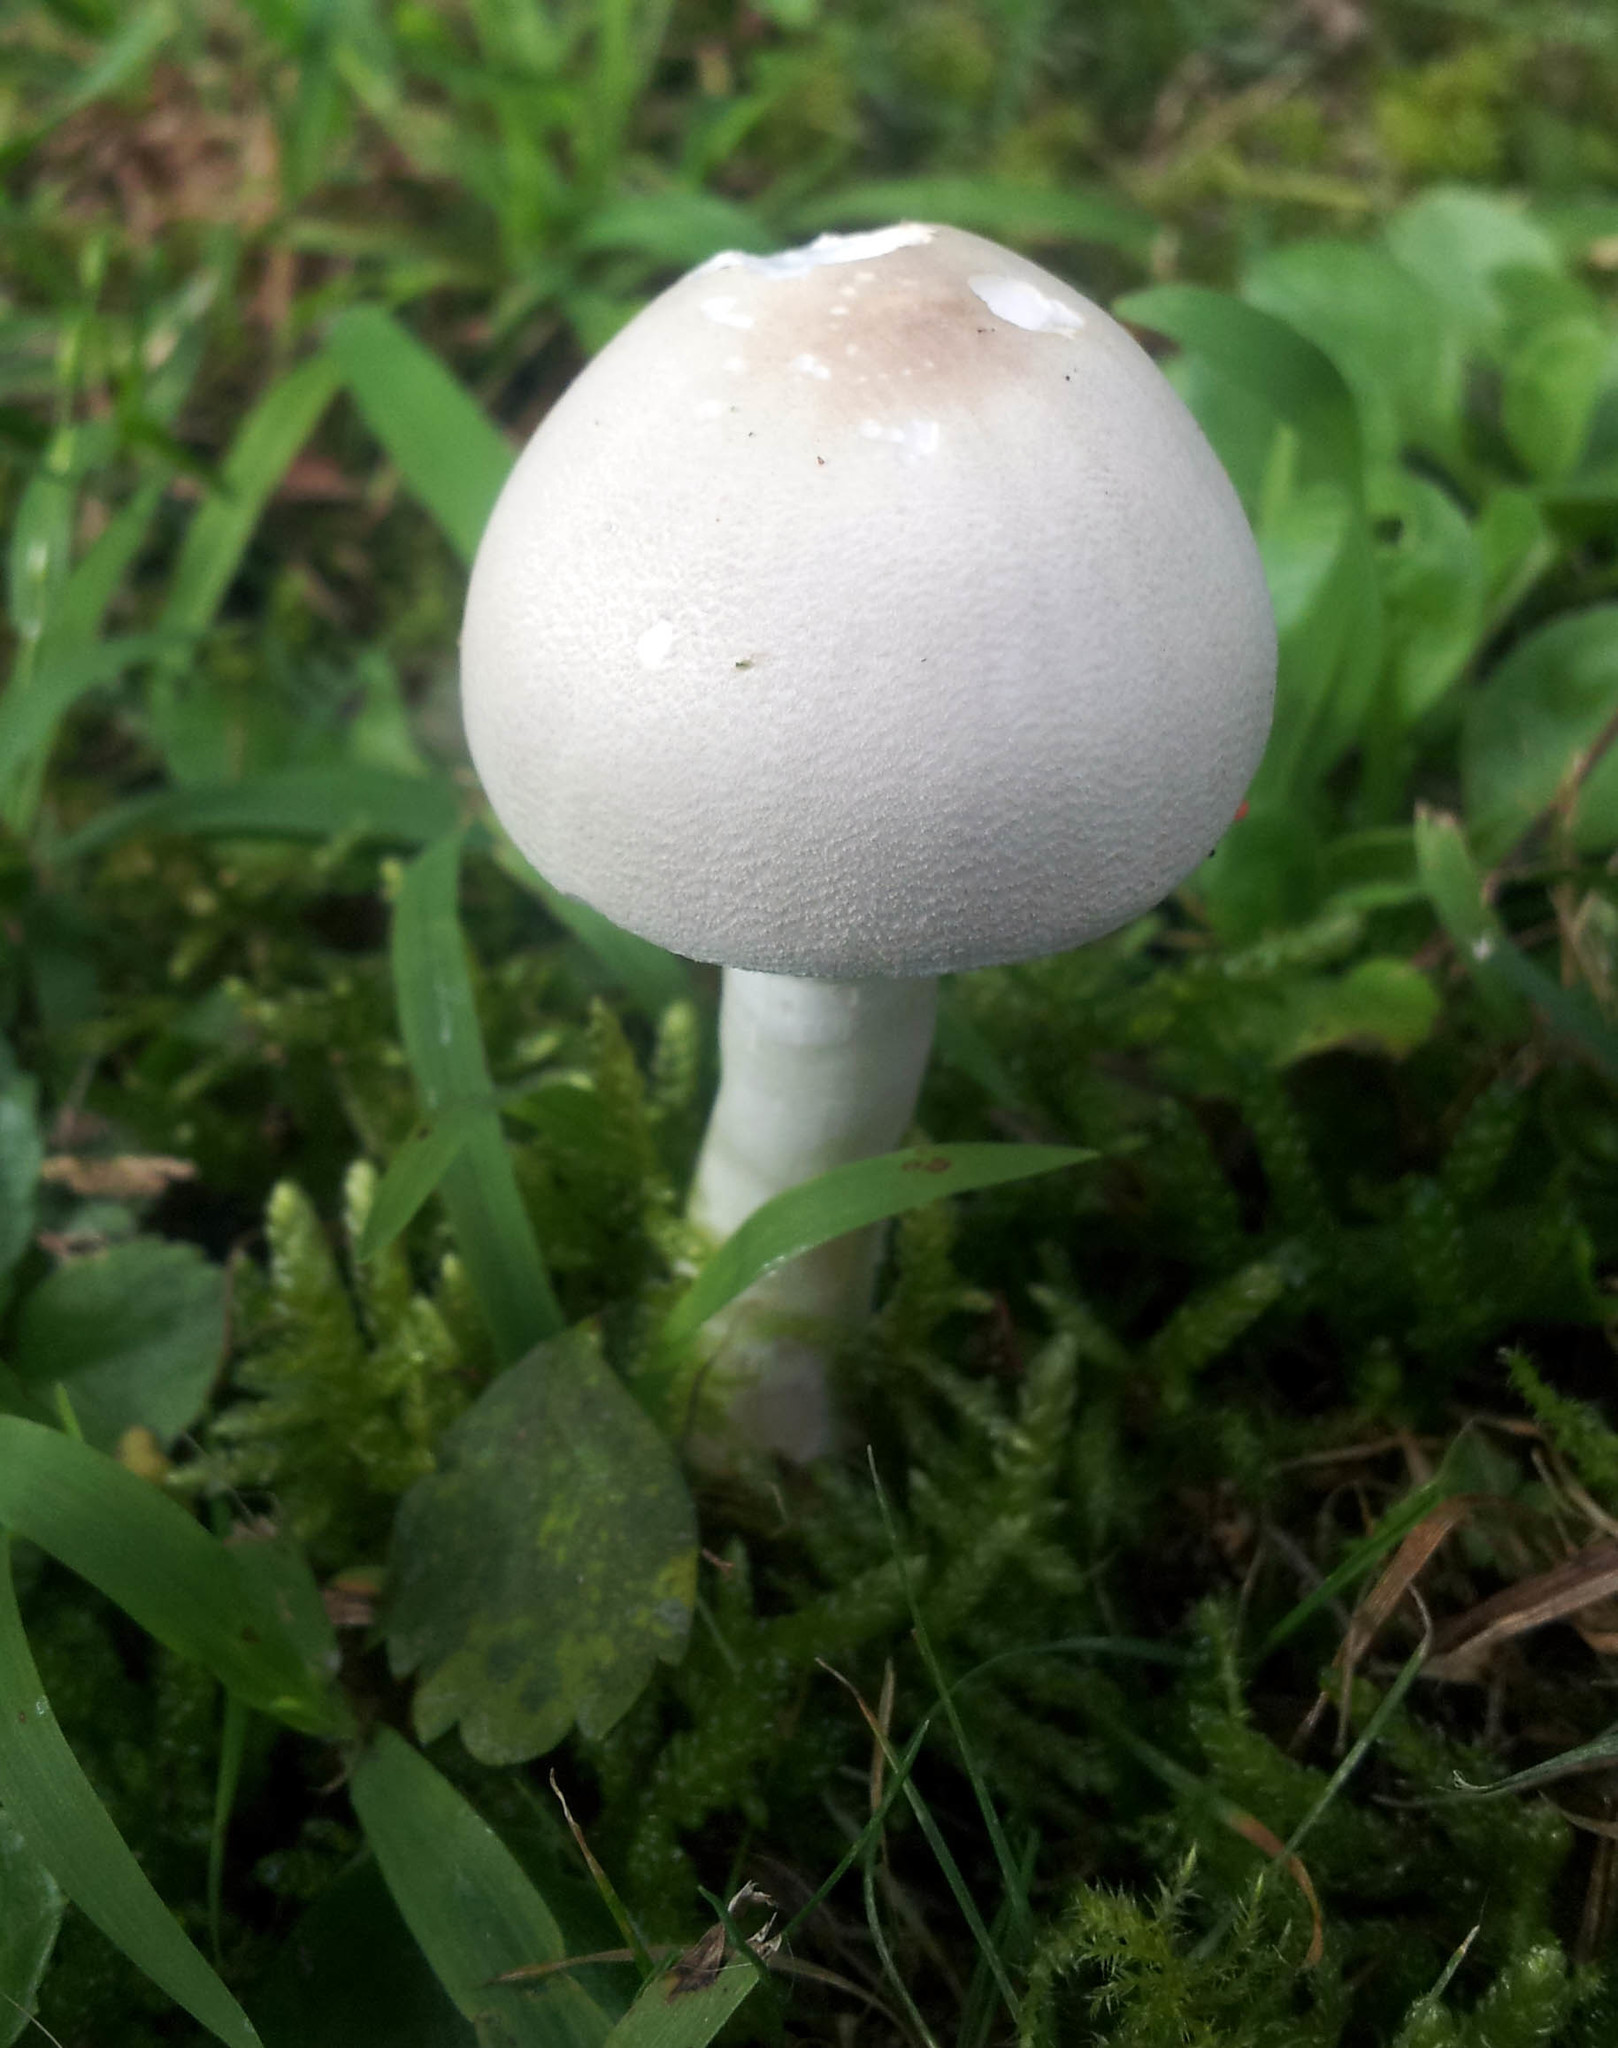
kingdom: Fungi
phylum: Basidiomycota
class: Agaricomycetes
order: Agaricales
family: Agaricaceae
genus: Leucoagaricus
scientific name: Leucoagaricus leucothites
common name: White dapperling
